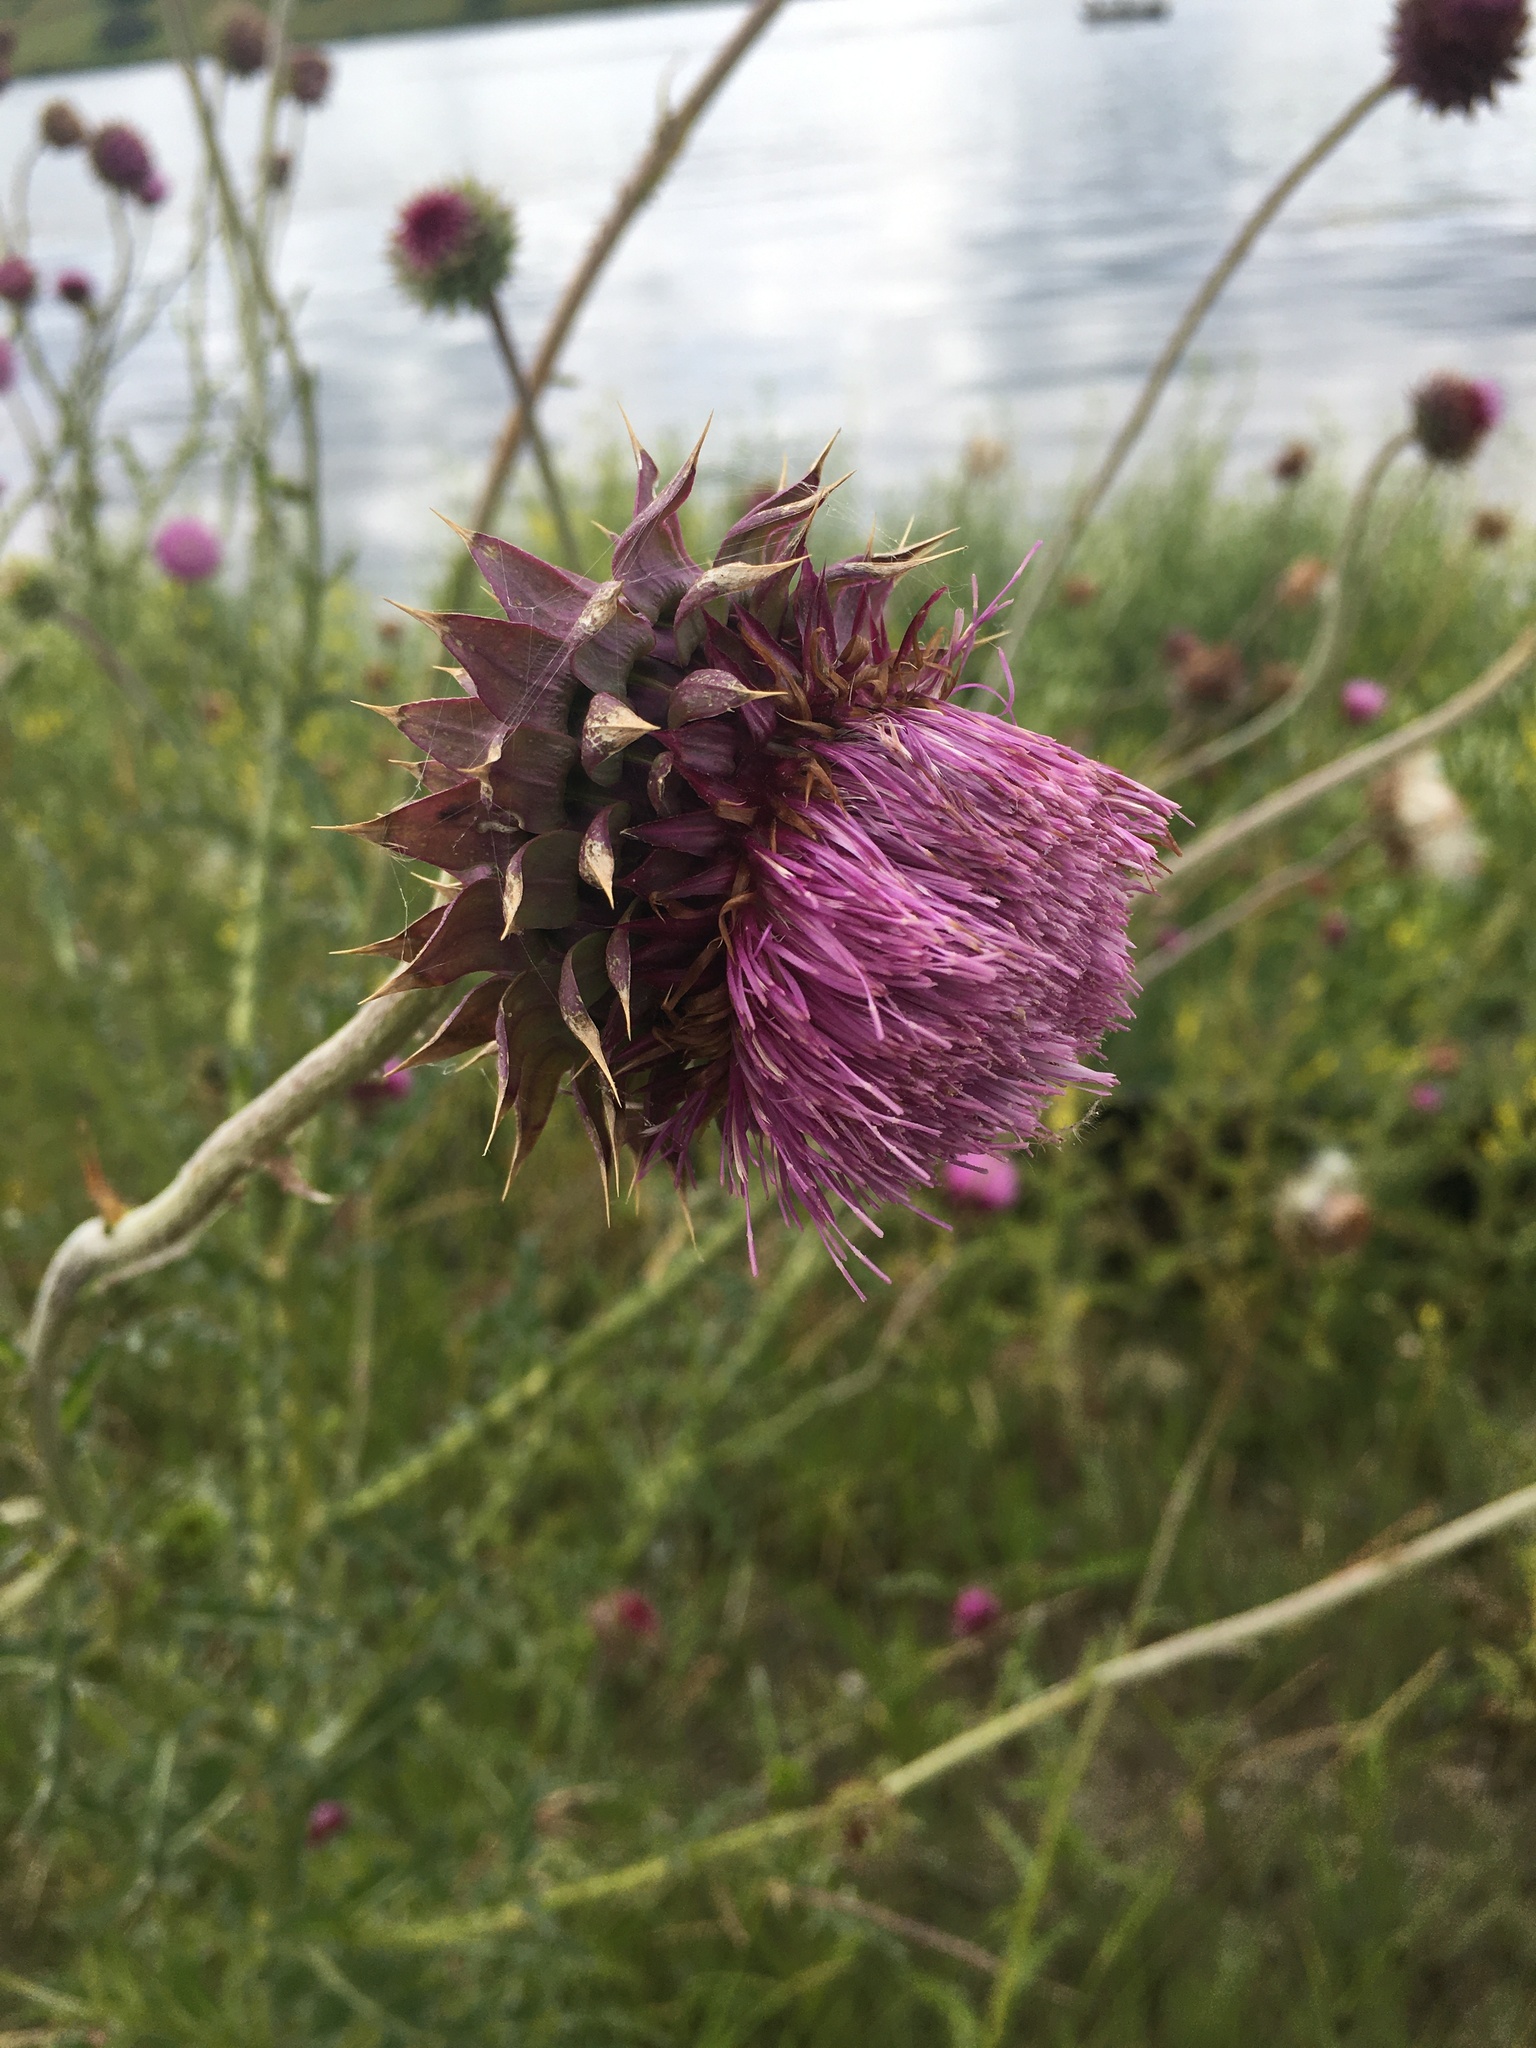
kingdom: Plantae
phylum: Tracheophyta
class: Magnoliopsida
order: Asterales
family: Asteraceae
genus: Carduus
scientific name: Carduus nutans
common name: Musk thistle
